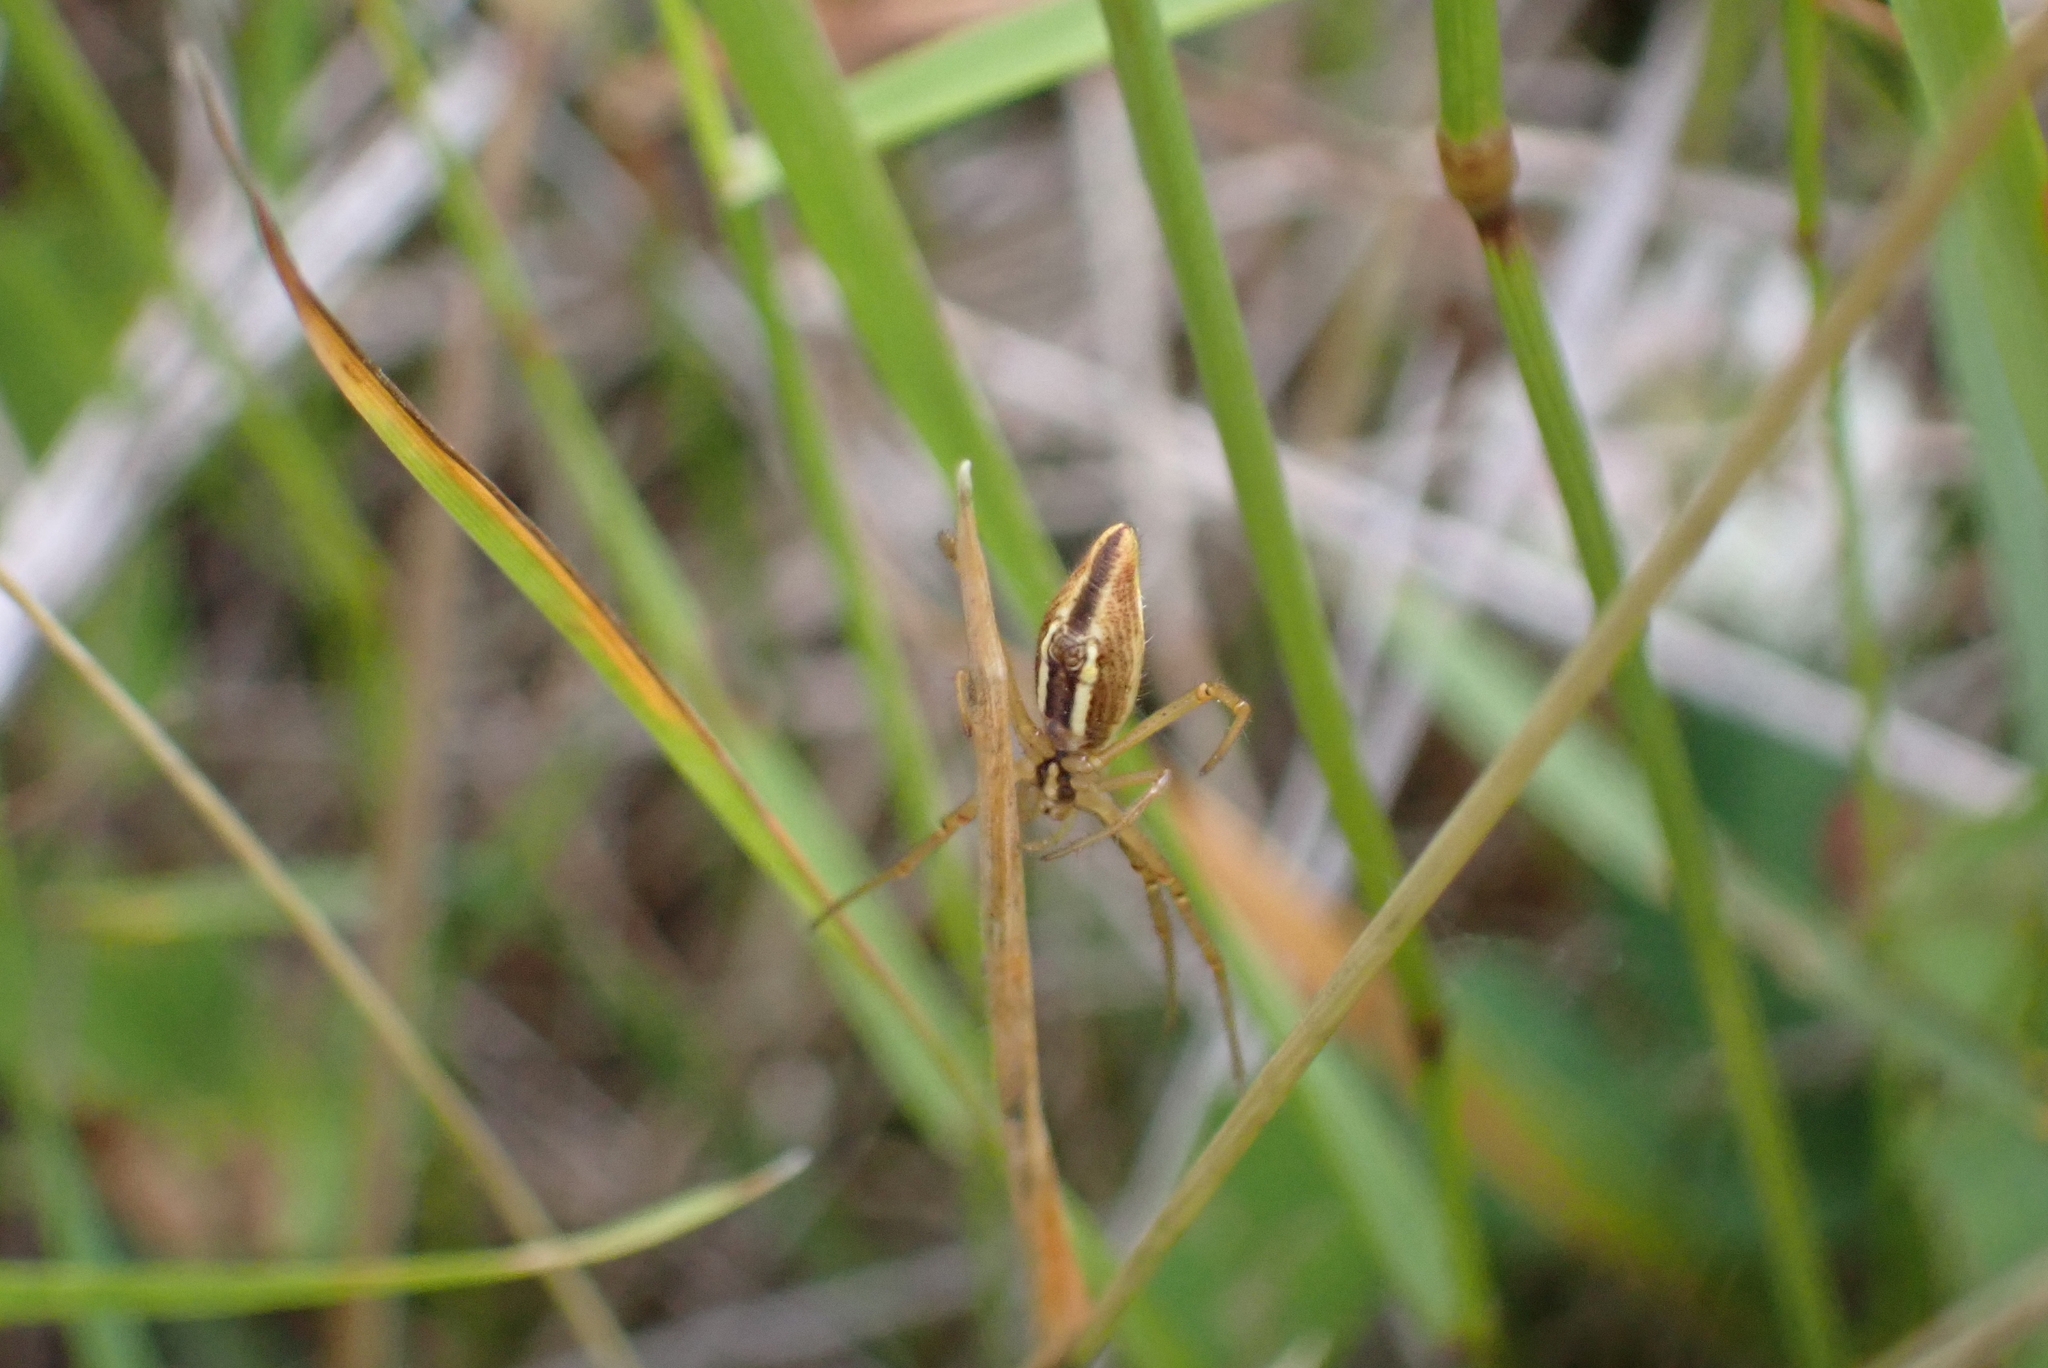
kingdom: Animalia
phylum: Arthropoda
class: Arachnida
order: Araneae
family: Araneidae
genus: Argiope
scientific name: Argiope protensa
